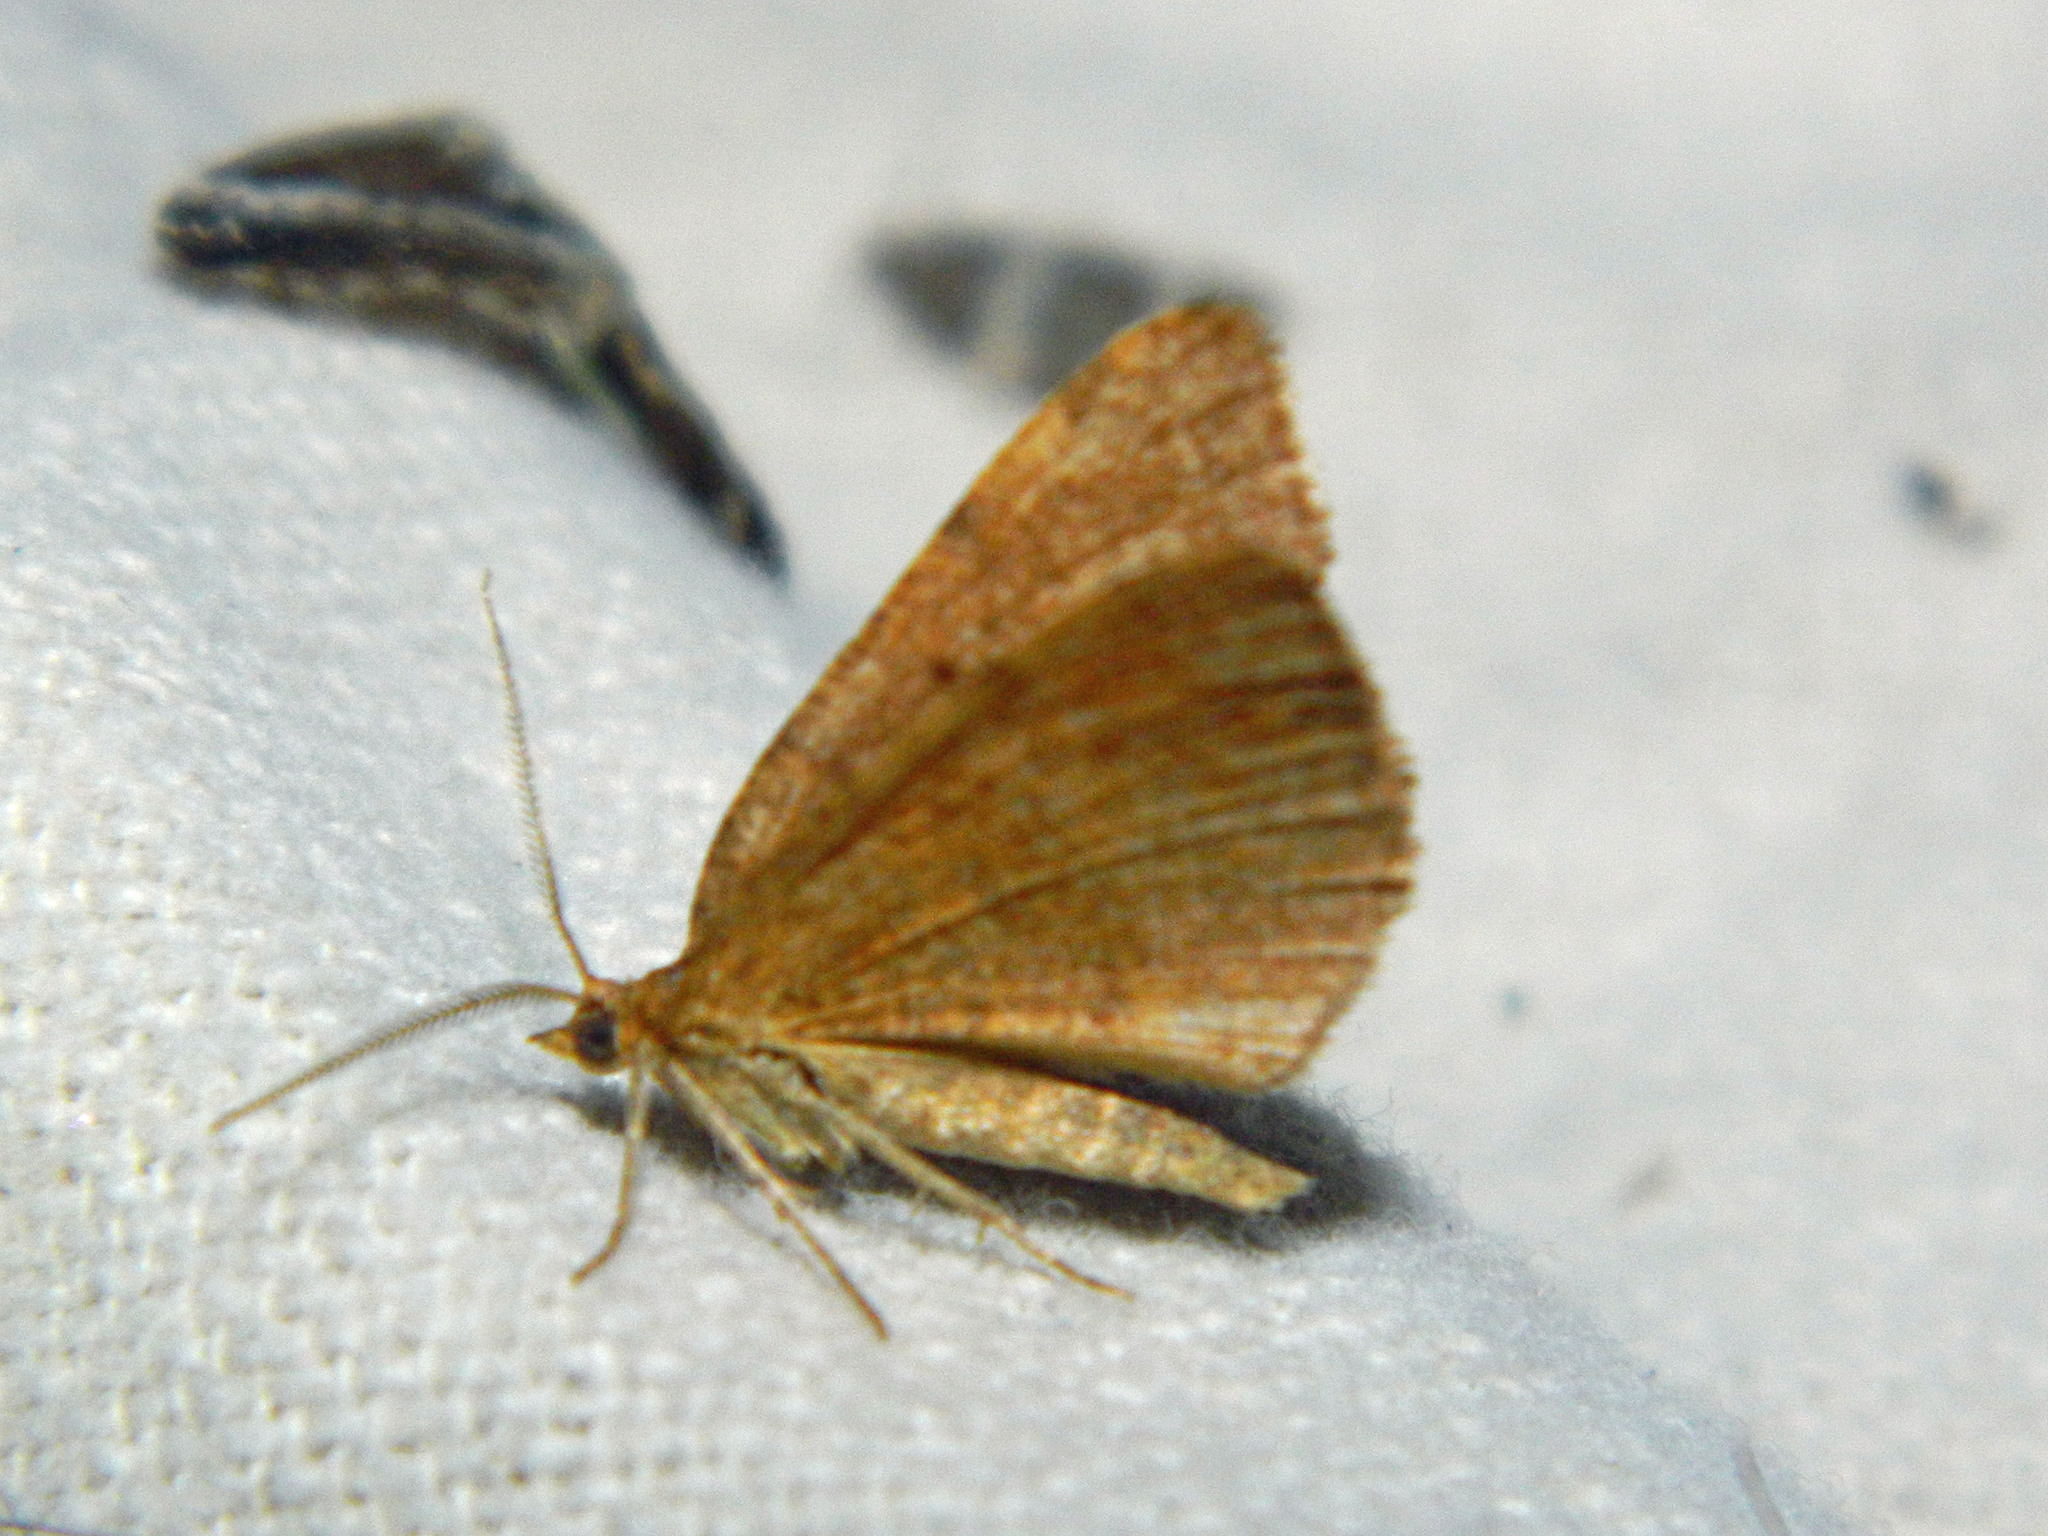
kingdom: Animalia
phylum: Arthropoda
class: Insecta
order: Lepidoptera
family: Geometridae
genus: Macaria
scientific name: Macaria brunneata
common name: Rannoch looper
